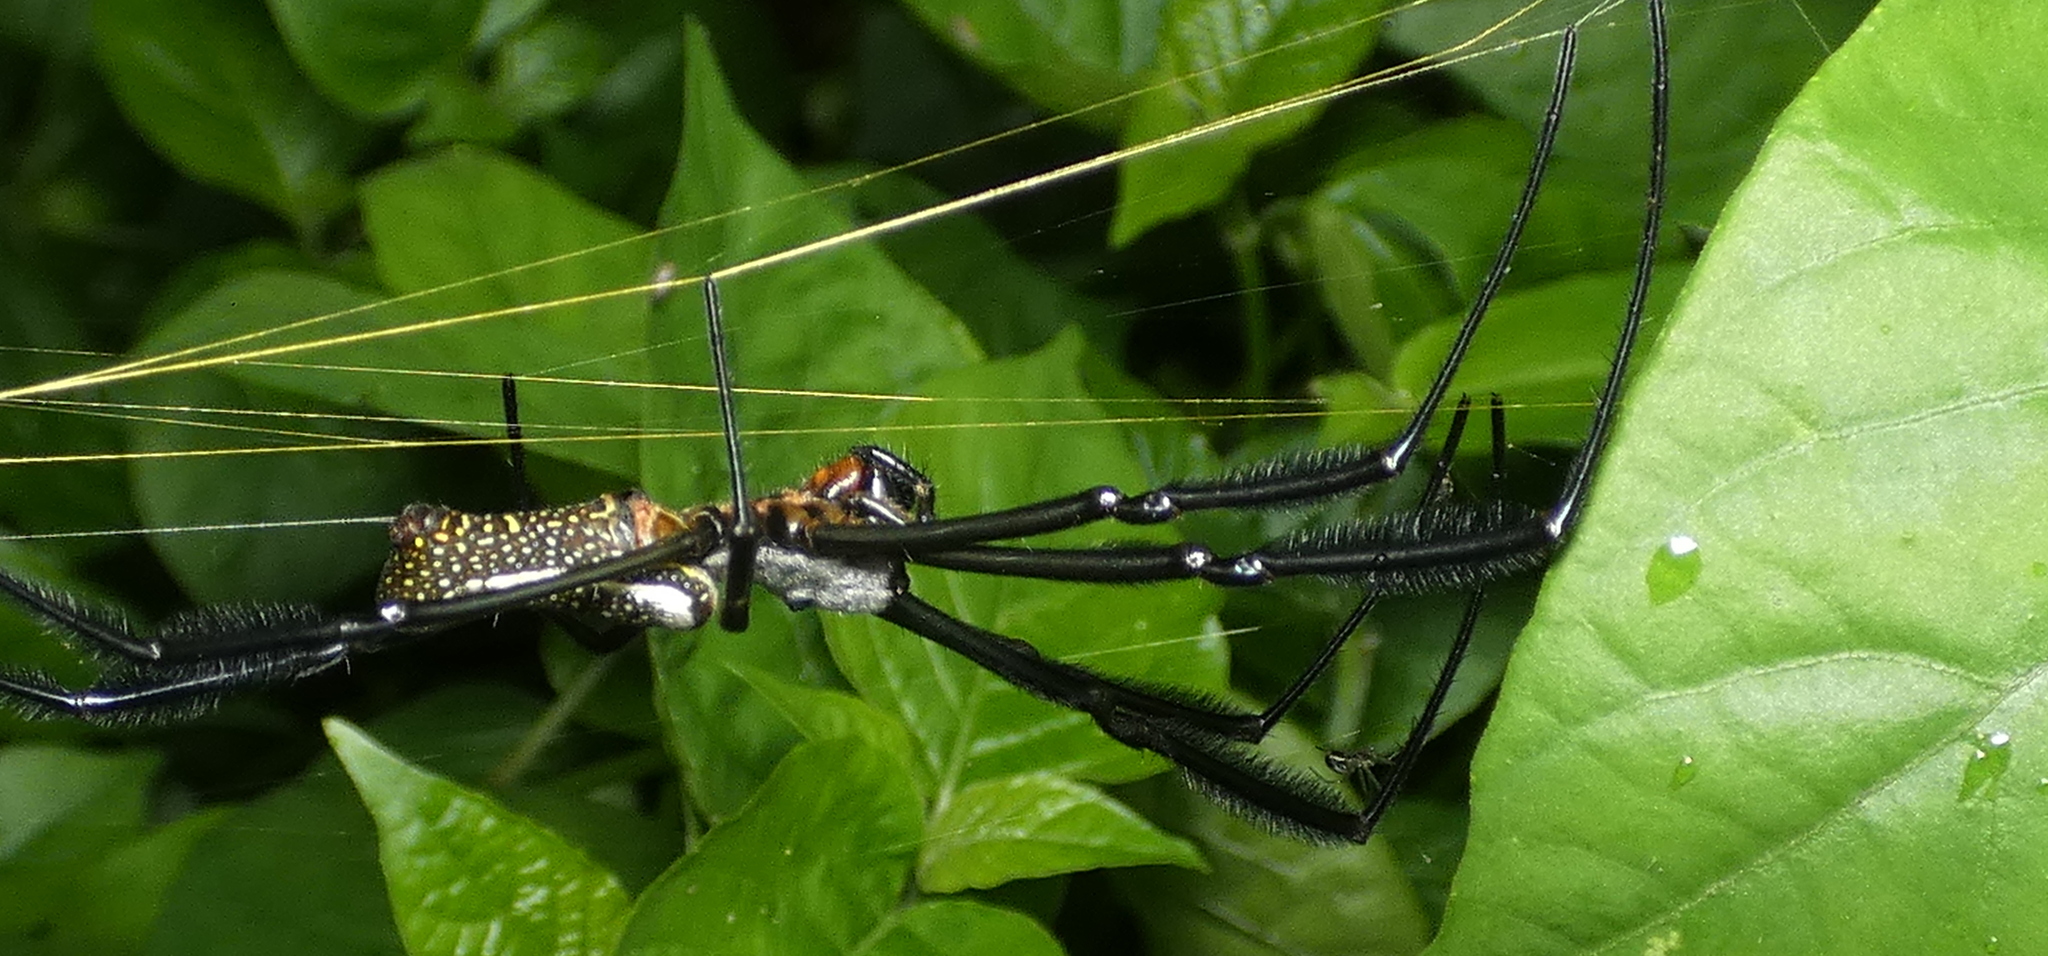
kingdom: Animalia
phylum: Arthropoda
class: Arachnida
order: Araneae
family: Araneidae
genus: Trichonephila
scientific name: Trichonephila clavipes
